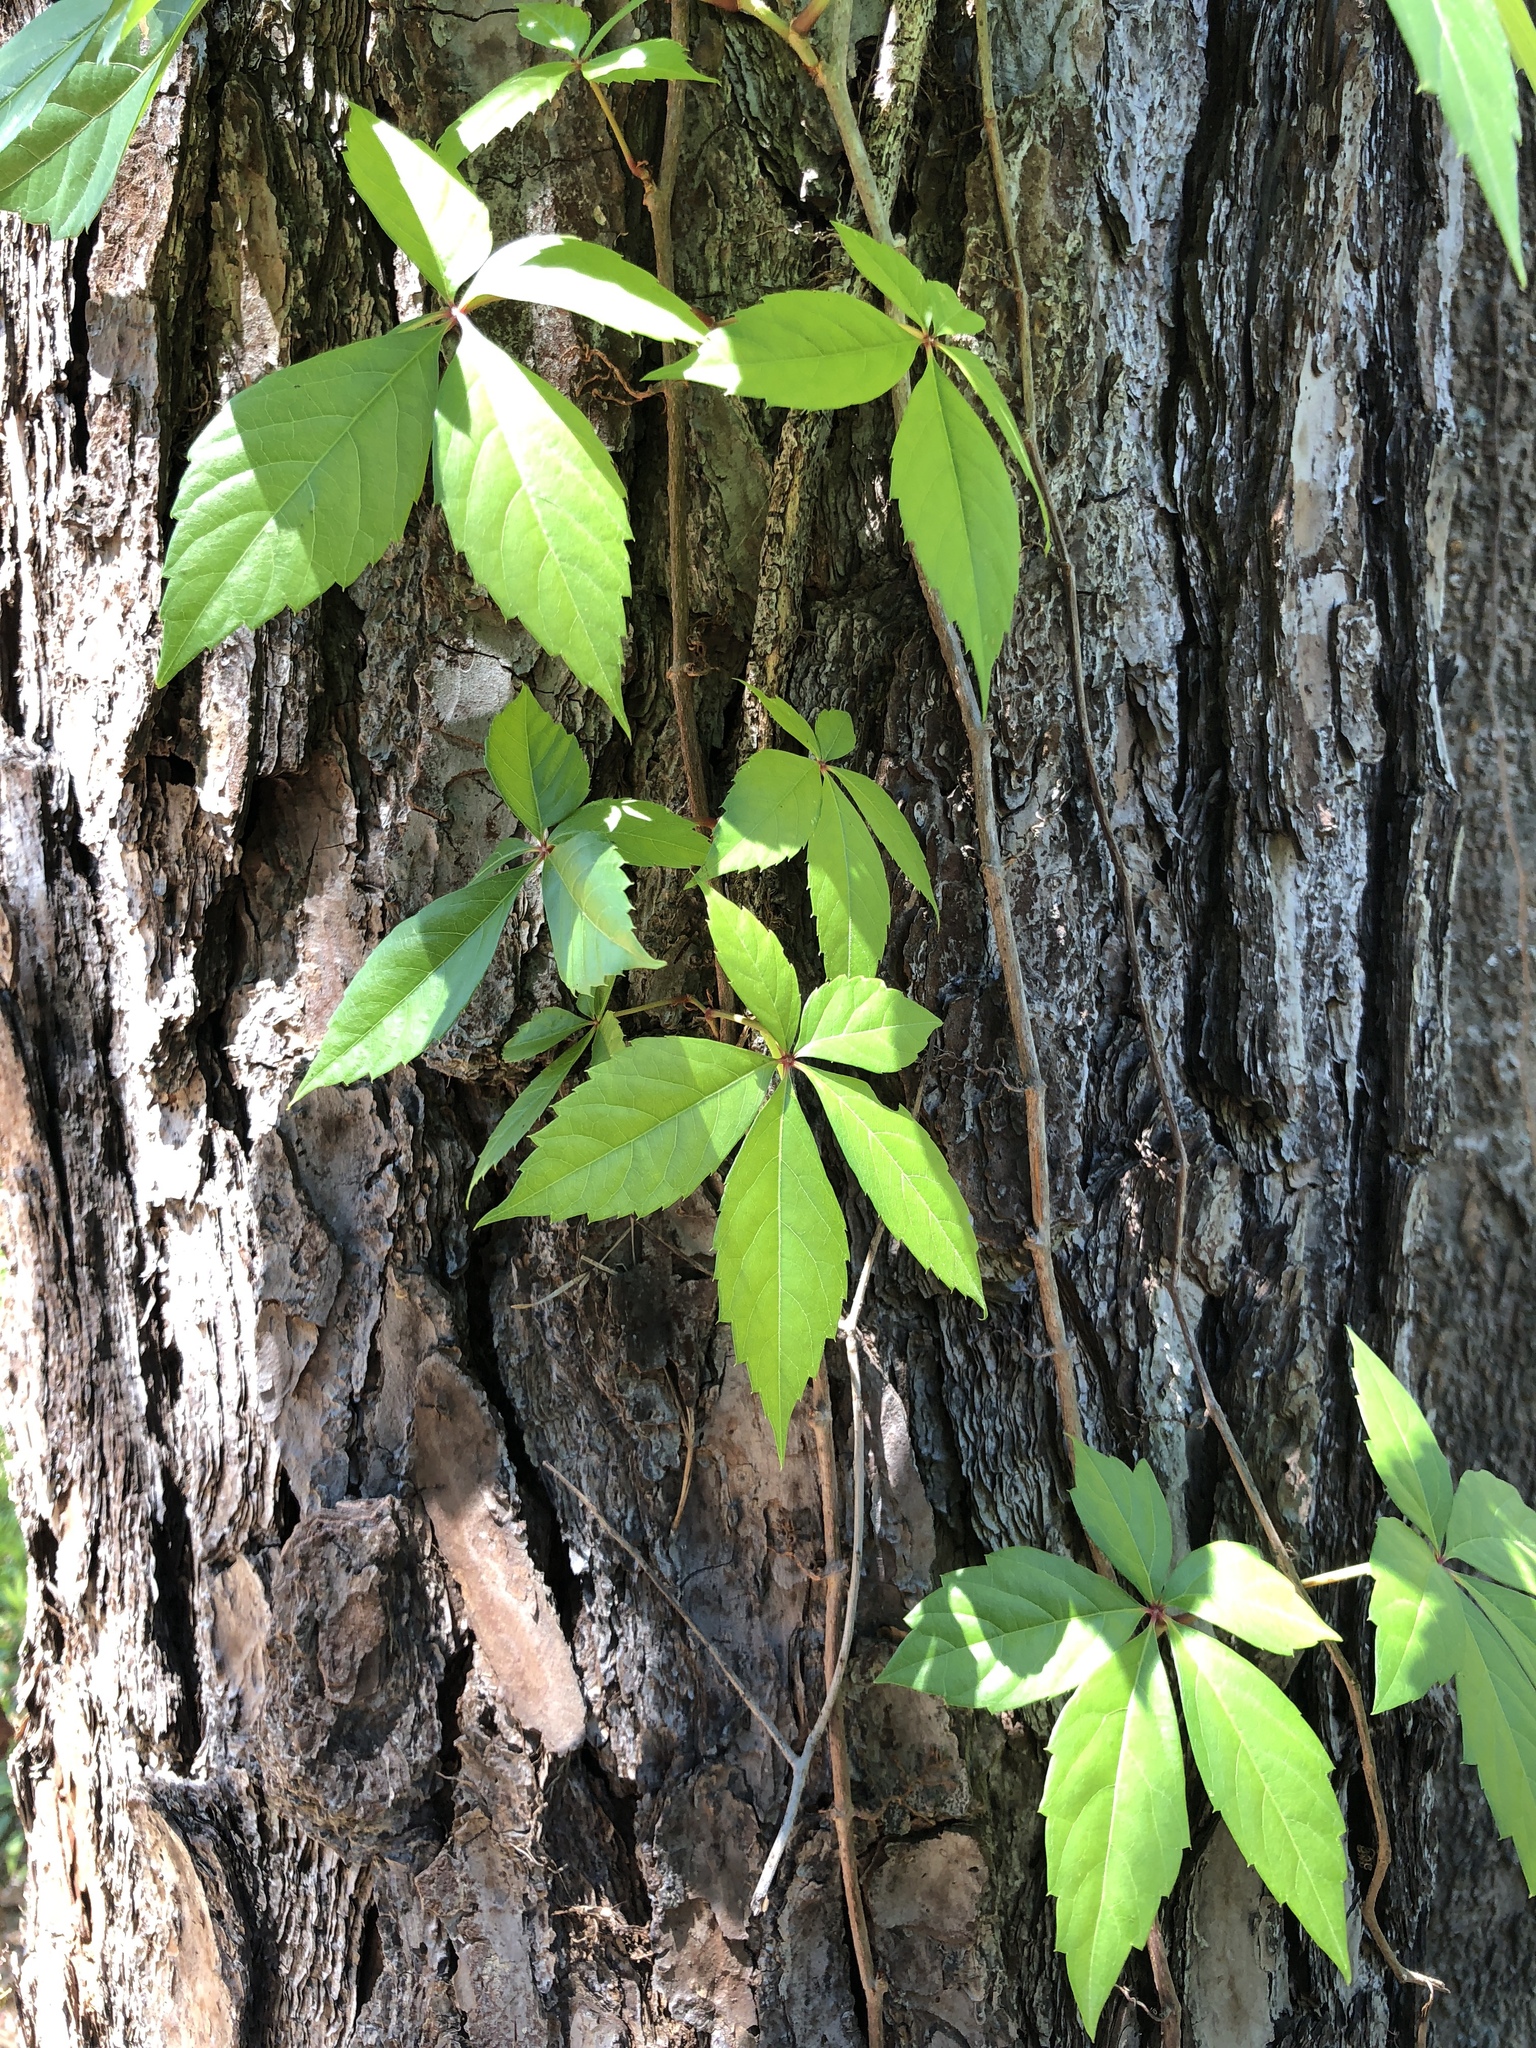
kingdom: Plantae
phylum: Tracheophyta
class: Magnoliopsida
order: Vitales
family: Vitaceae
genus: Parthenocissus
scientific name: Parthenocissus quinquefolia
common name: Virginia-creeper
